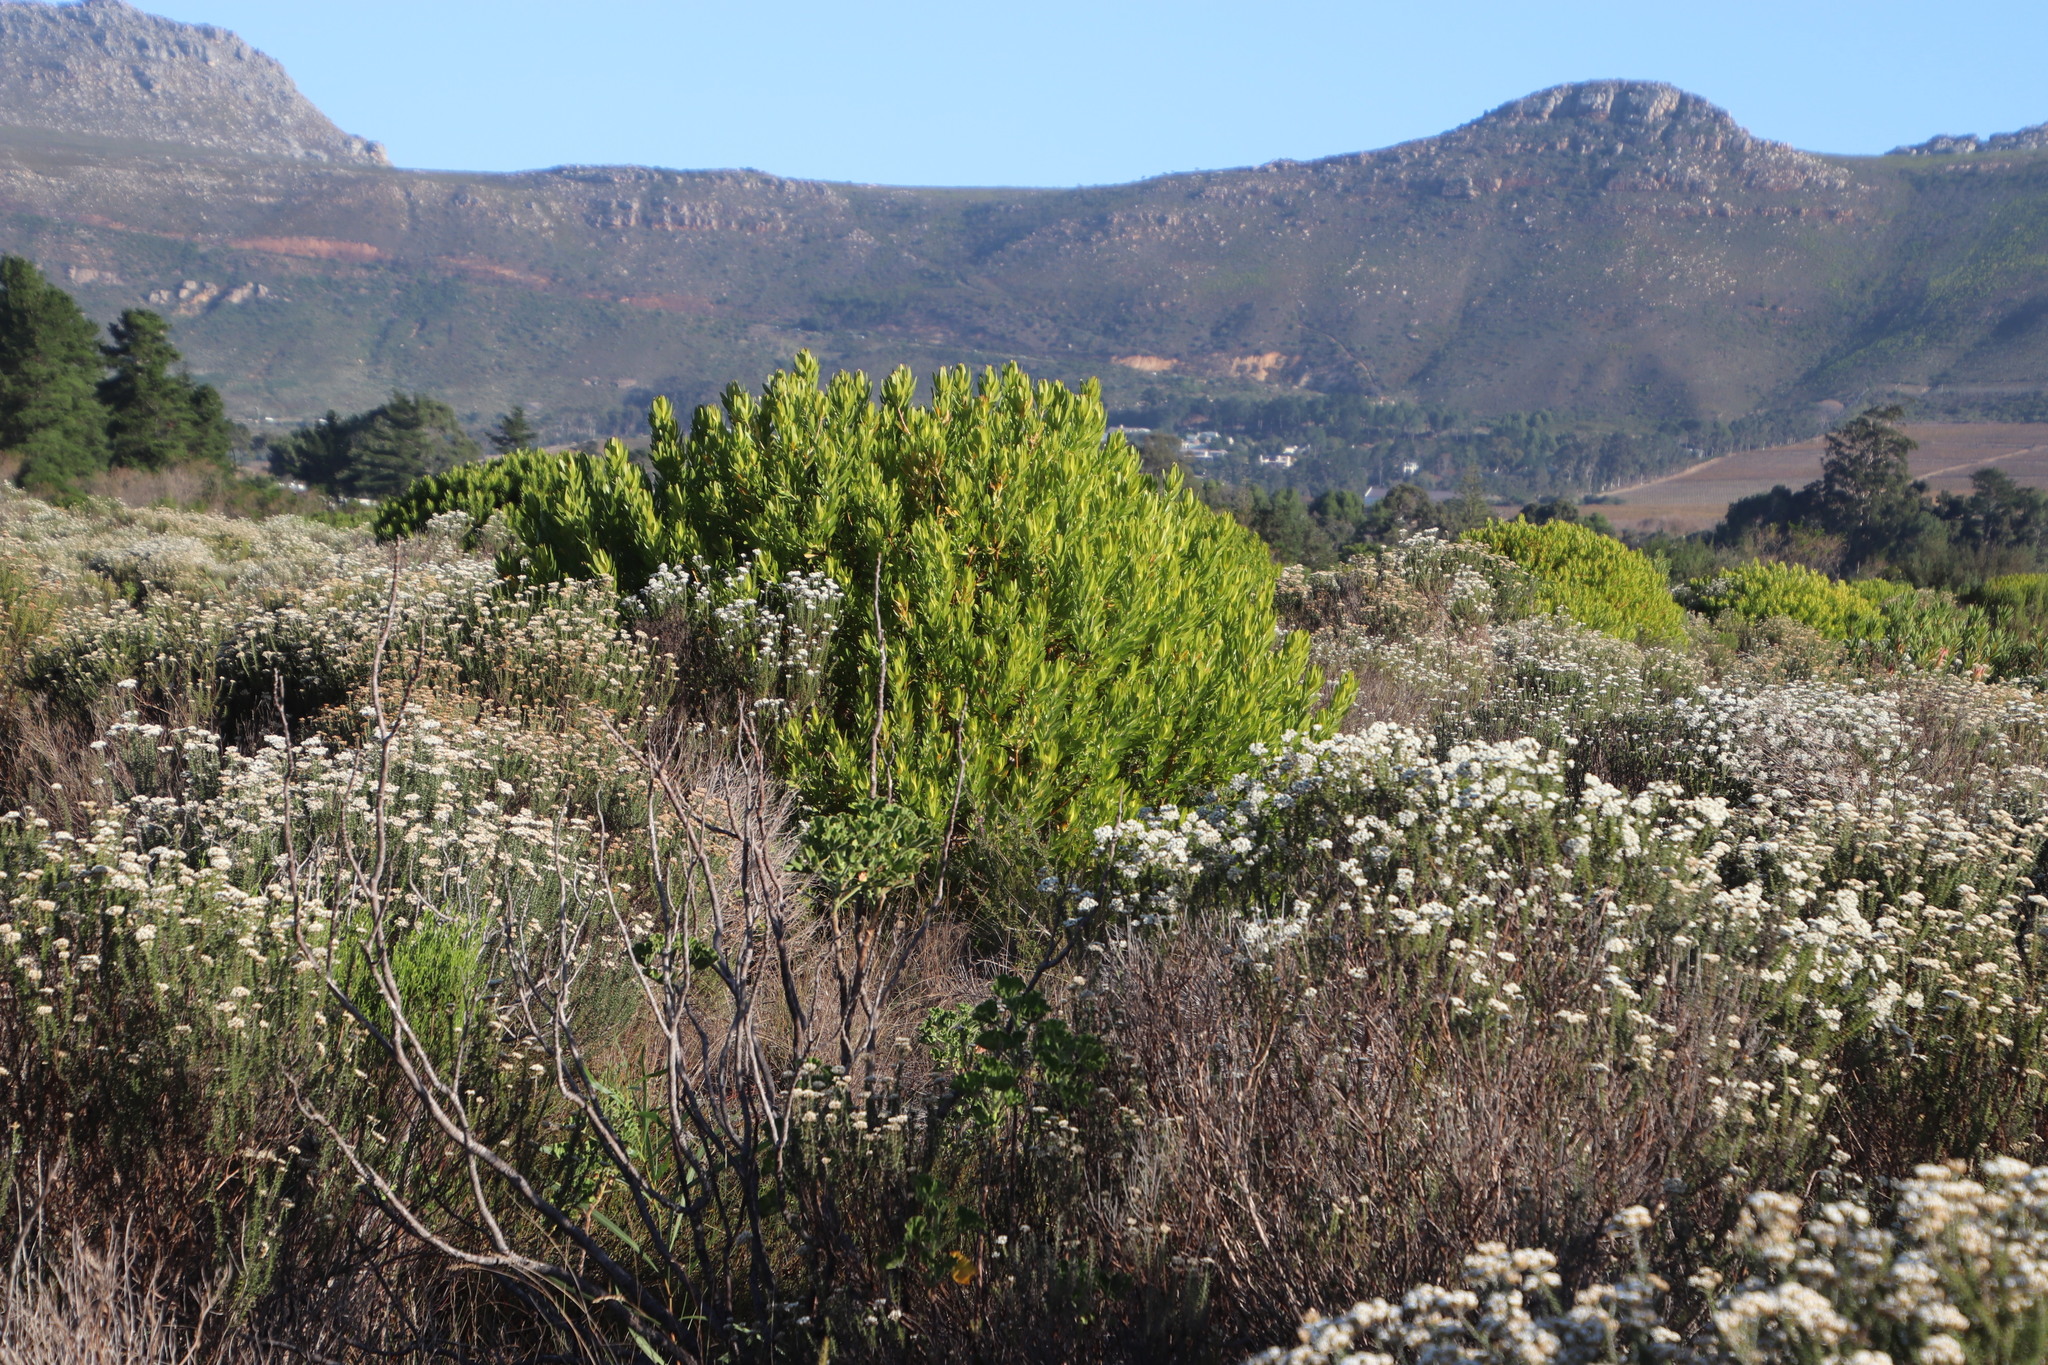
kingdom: Plantae
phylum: Tracheophyta
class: Magnoliopsida
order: Proteales
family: Proteaceae
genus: Leucadendron
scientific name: Leucadendron laureolum
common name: Golden sunshinebush
